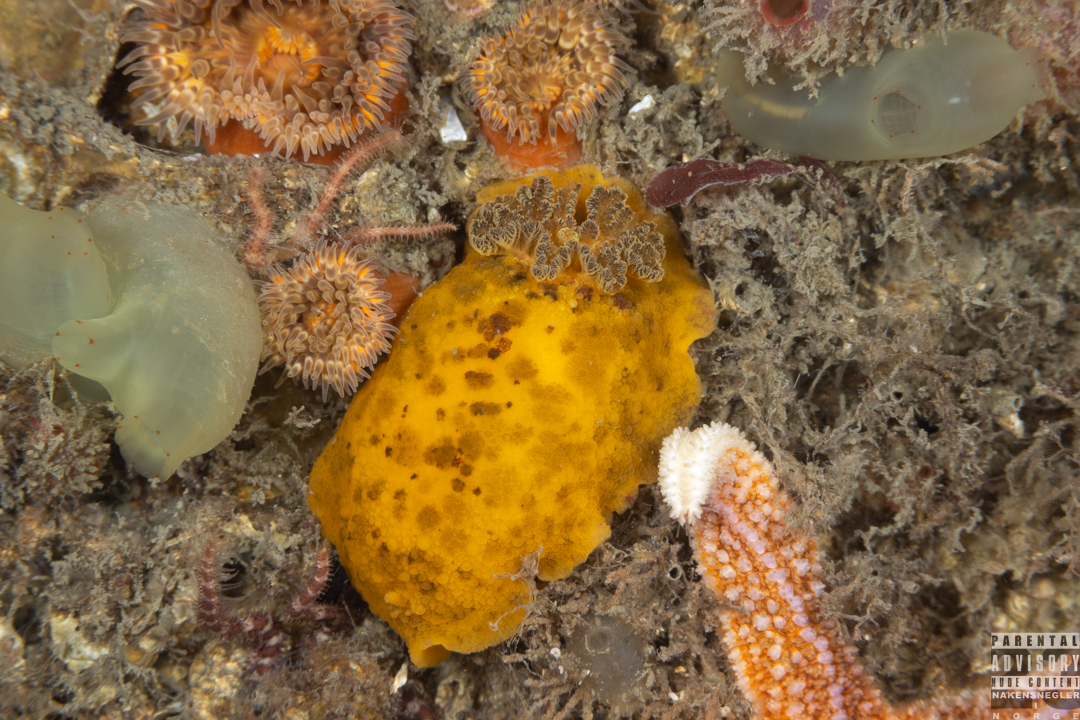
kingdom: Animalia
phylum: Mollusca
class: Gastropoda
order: Nudibranchia
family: Dorididae
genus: Doris
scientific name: Doris pseudoargus
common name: Sea lemon
